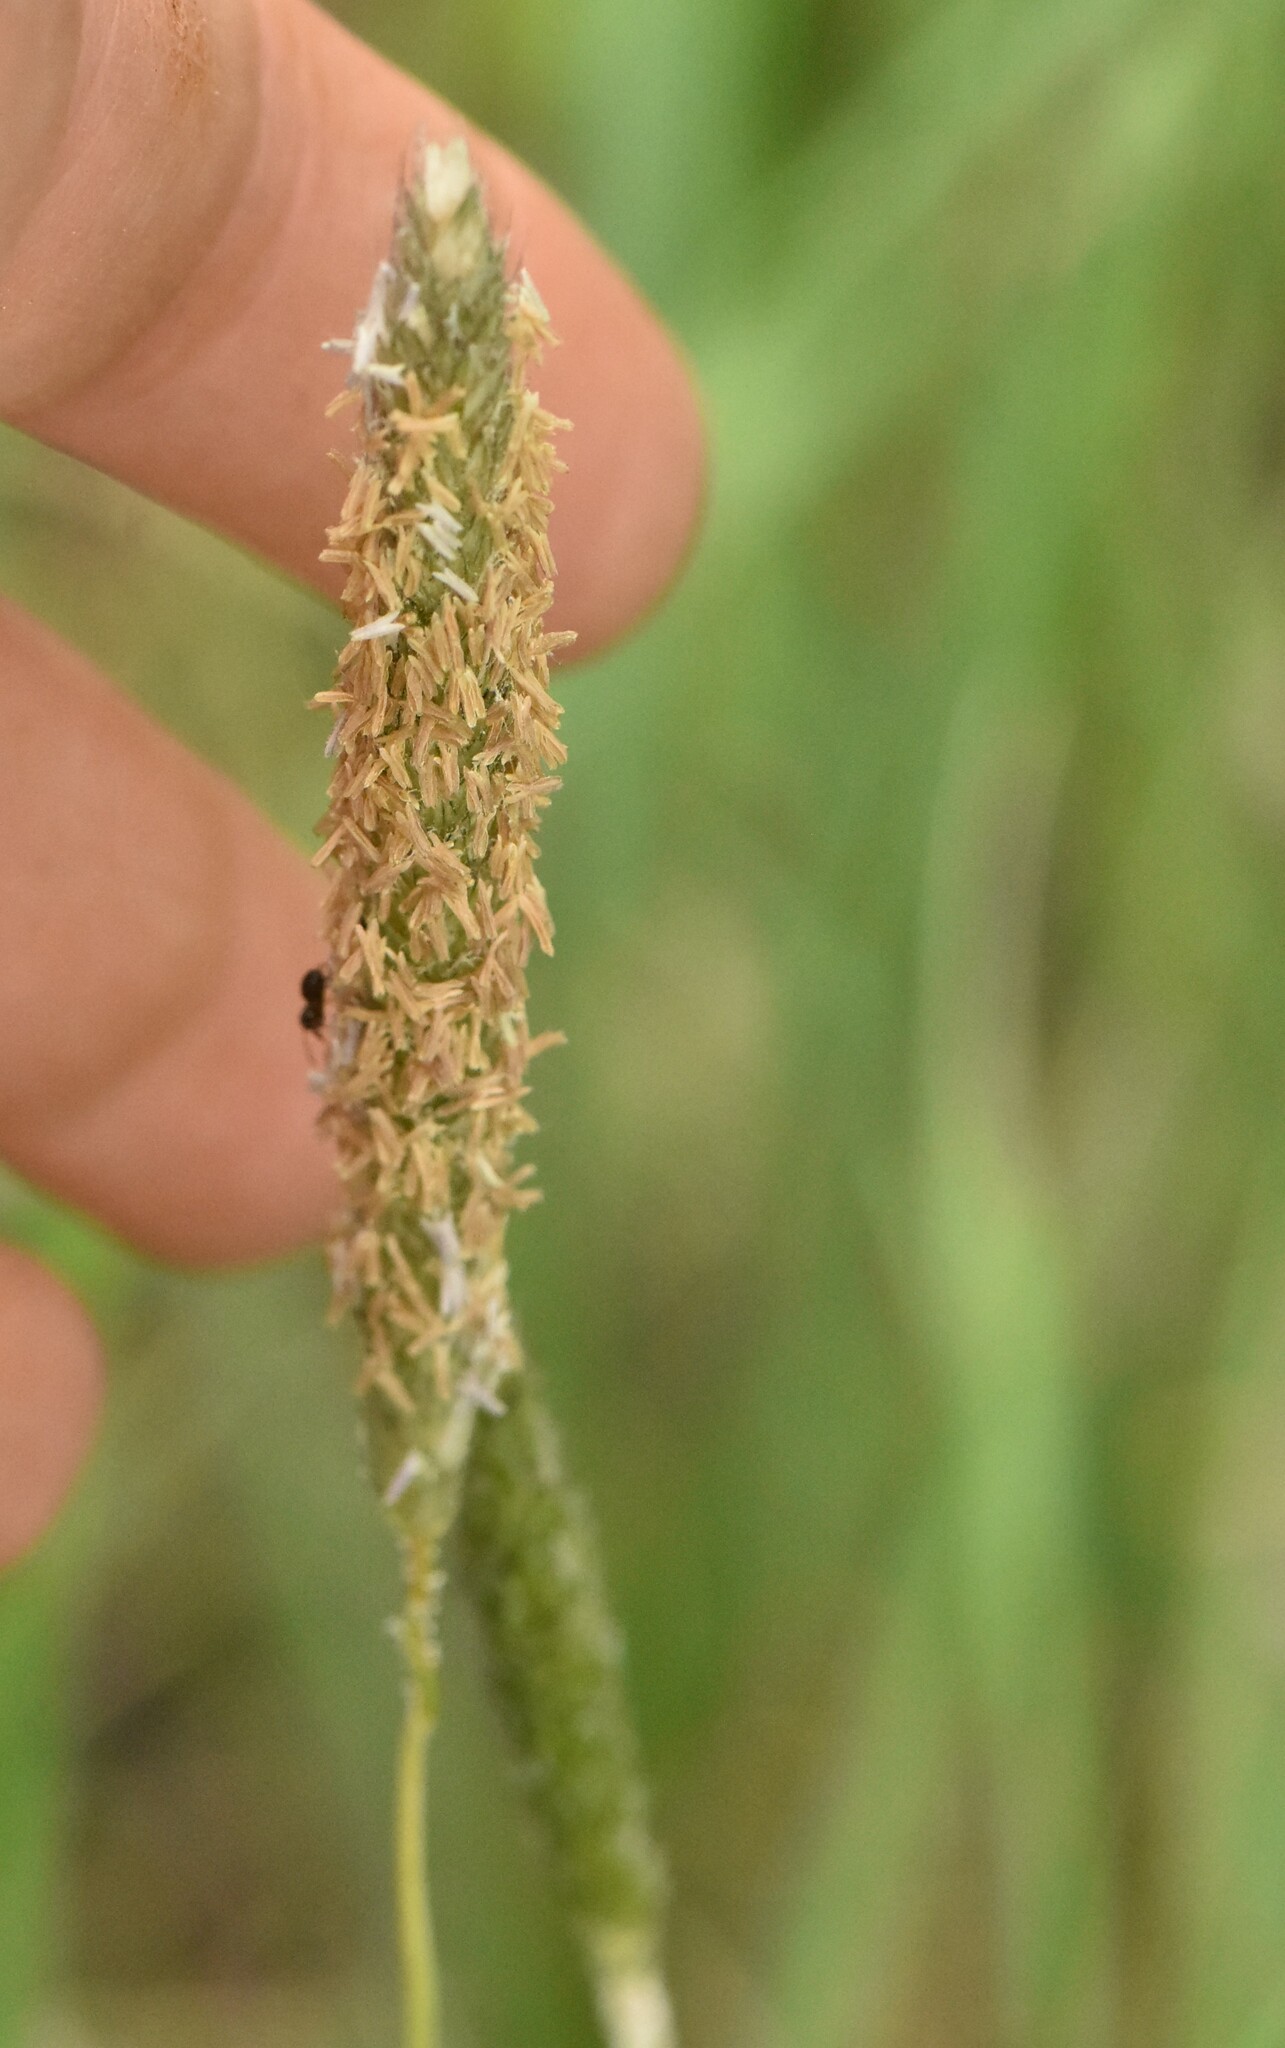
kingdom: Plantae
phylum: Tracheophyta
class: Liliopsida
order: Poales
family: Poaceae
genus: Alopecurus
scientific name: Alopecurus pratensis
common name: Meadow foxtail
